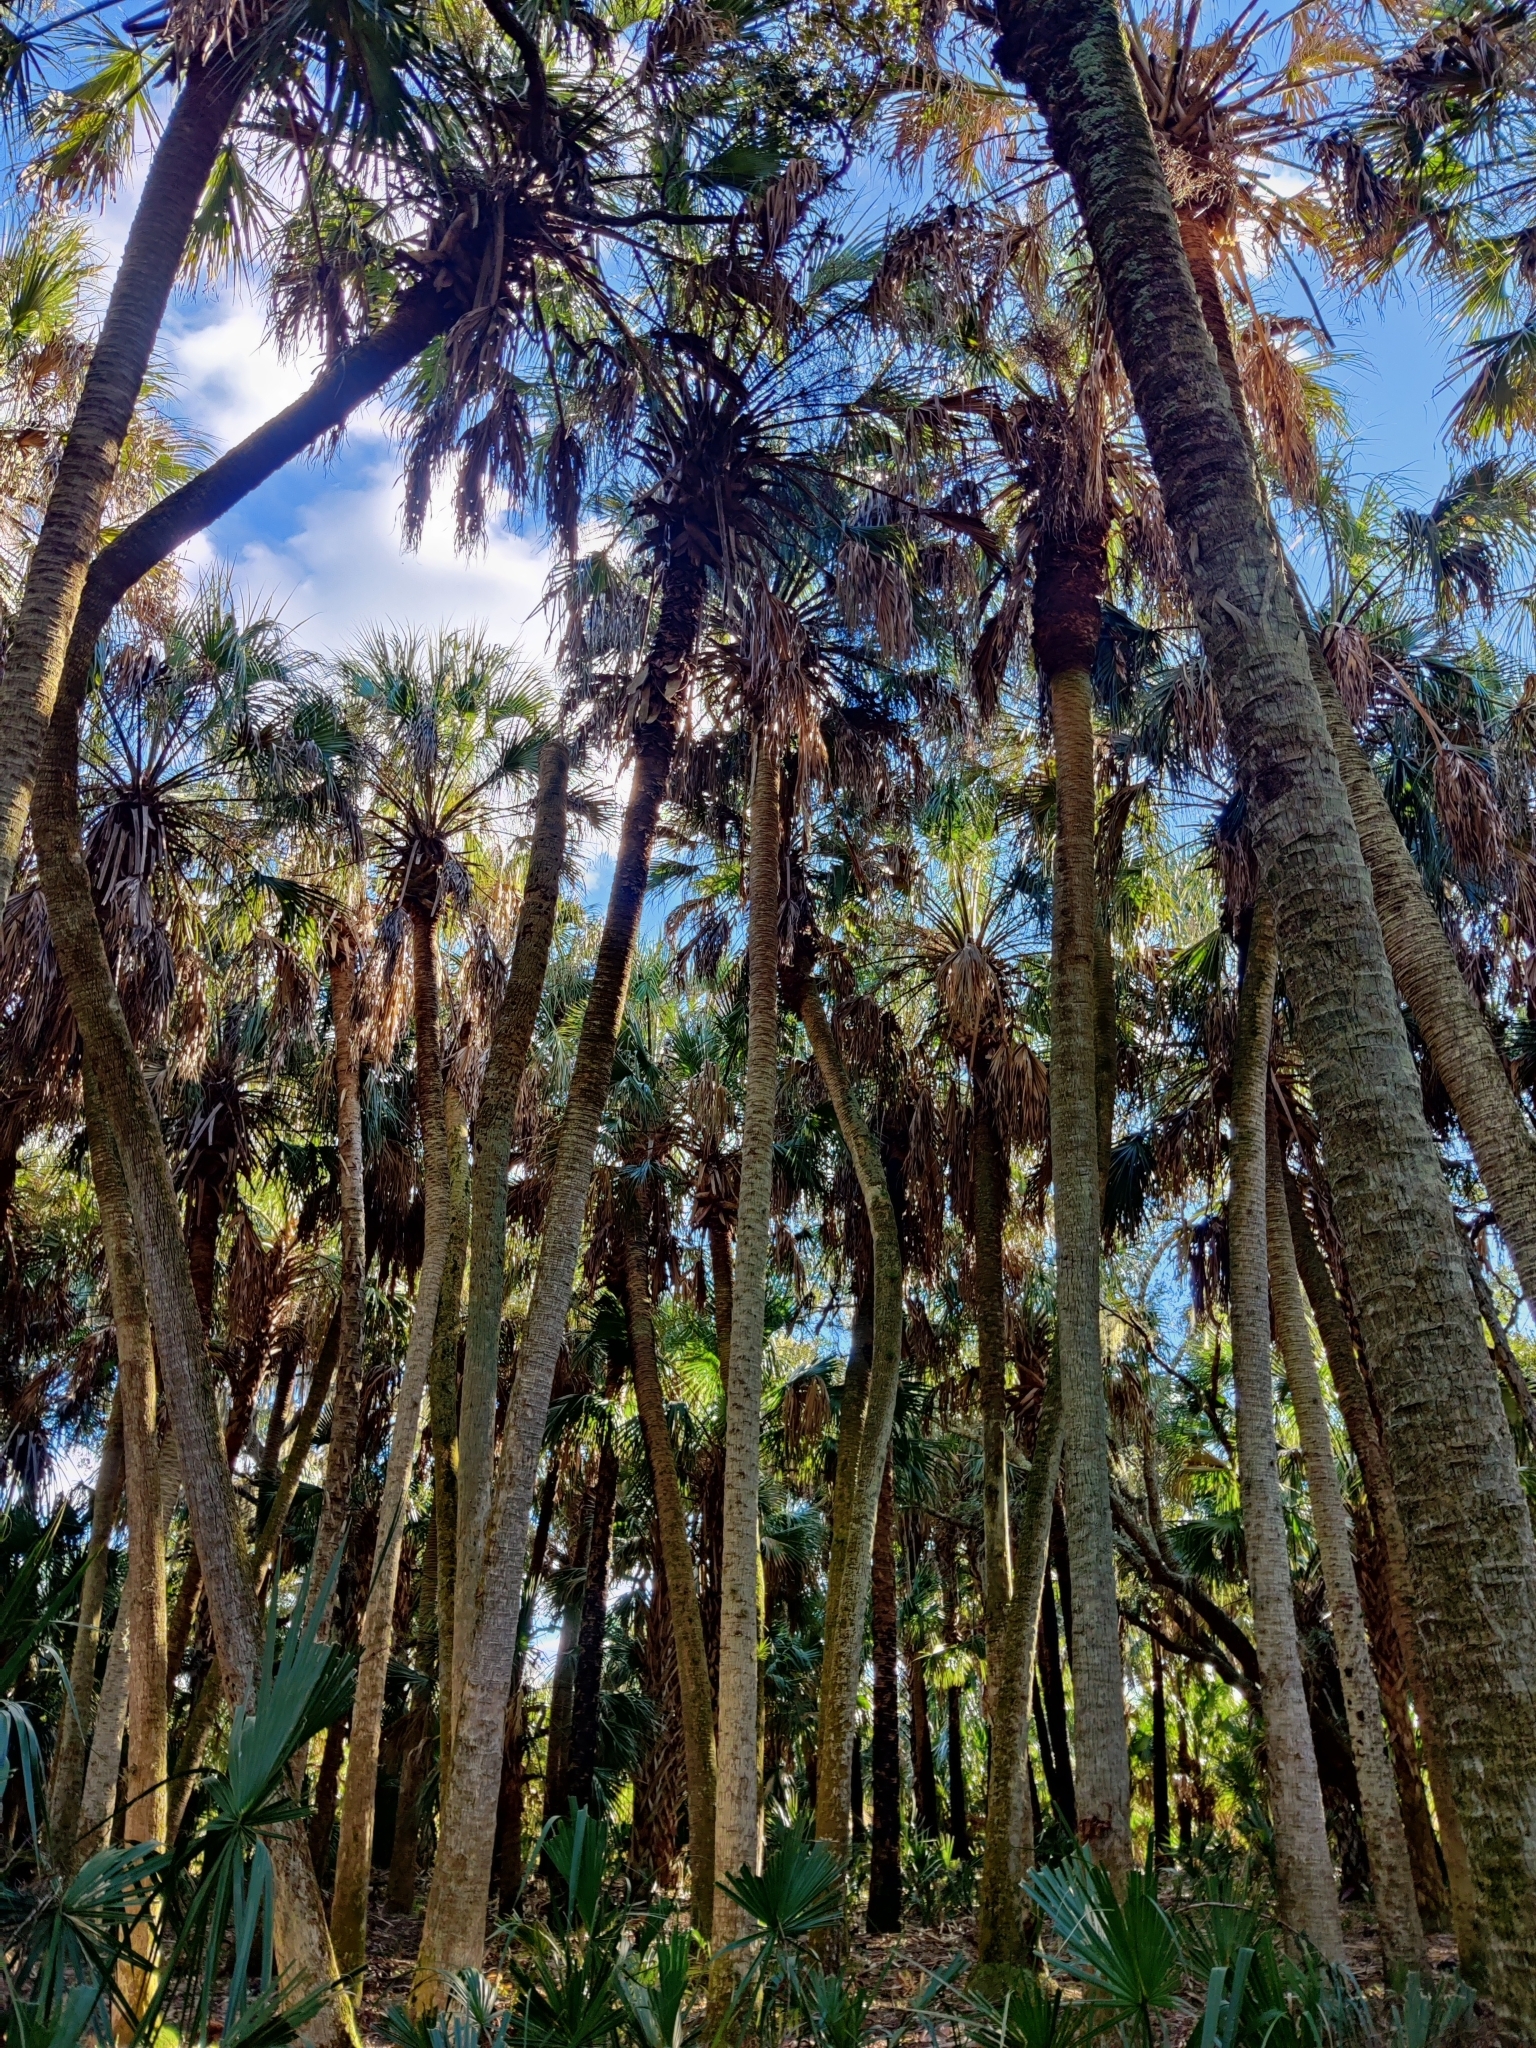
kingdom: Plantae
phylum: Tracheophyta
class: Liliopsida
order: Arecales
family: Arecaceae
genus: Sabal
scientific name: Sabal palmetto
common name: Blue palmetto
